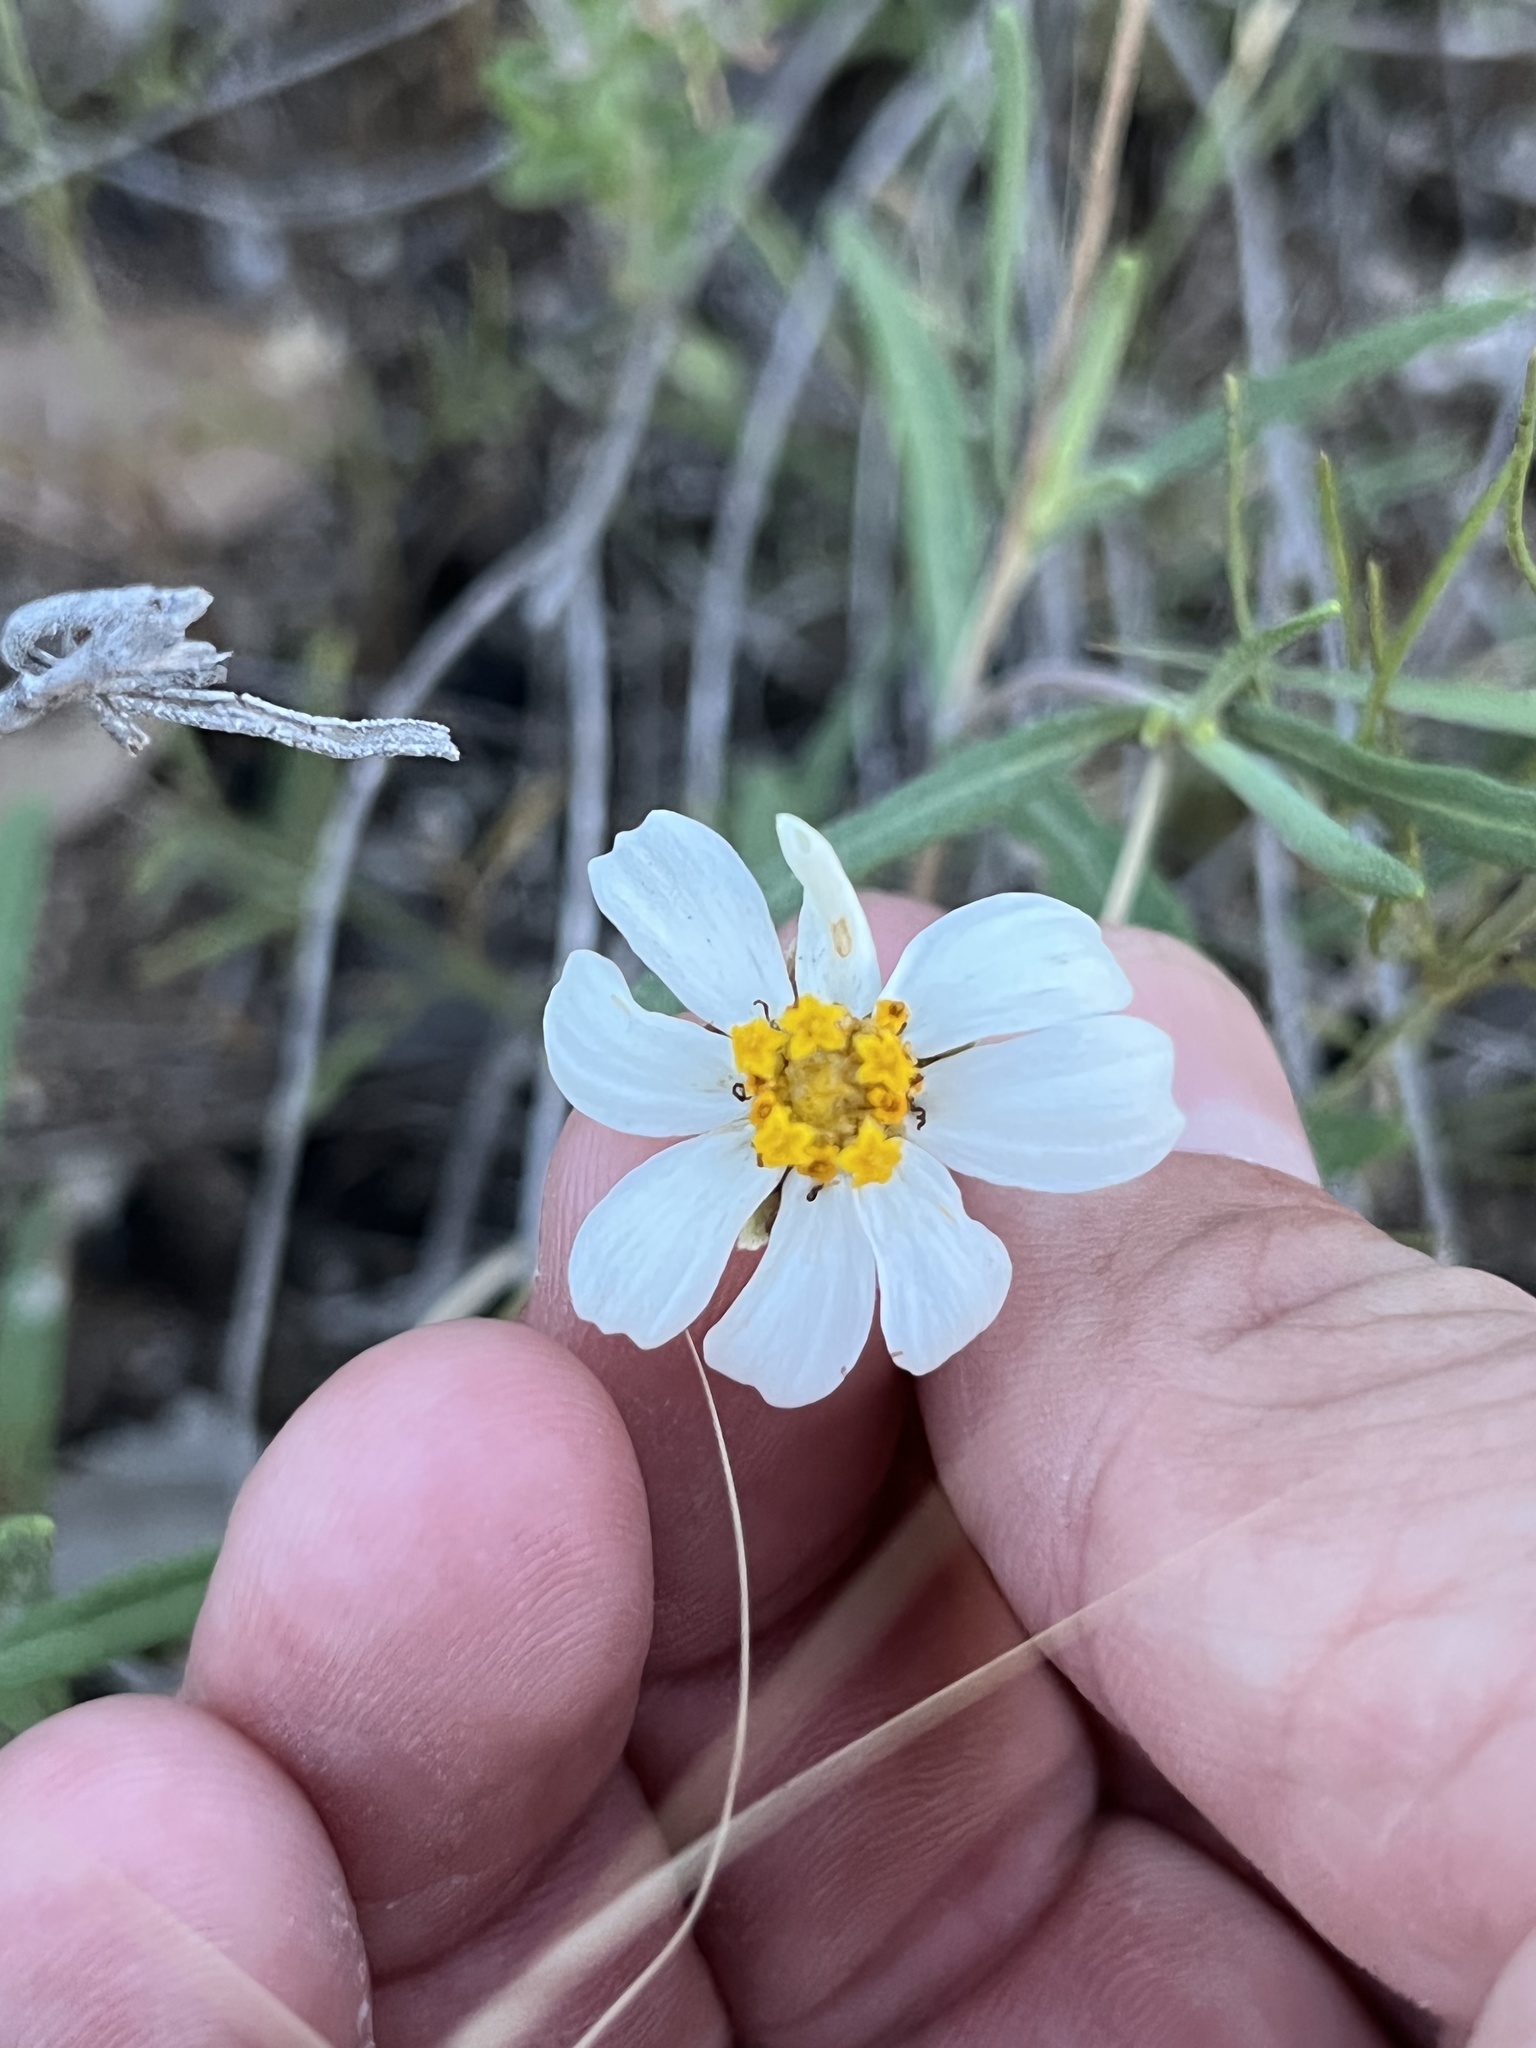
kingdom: Plantae
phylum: Tracheophyta
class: Magnoliopsida
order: Asterales
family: Asteraceae
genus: Melampodium
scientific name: Melampodium leucanthum
